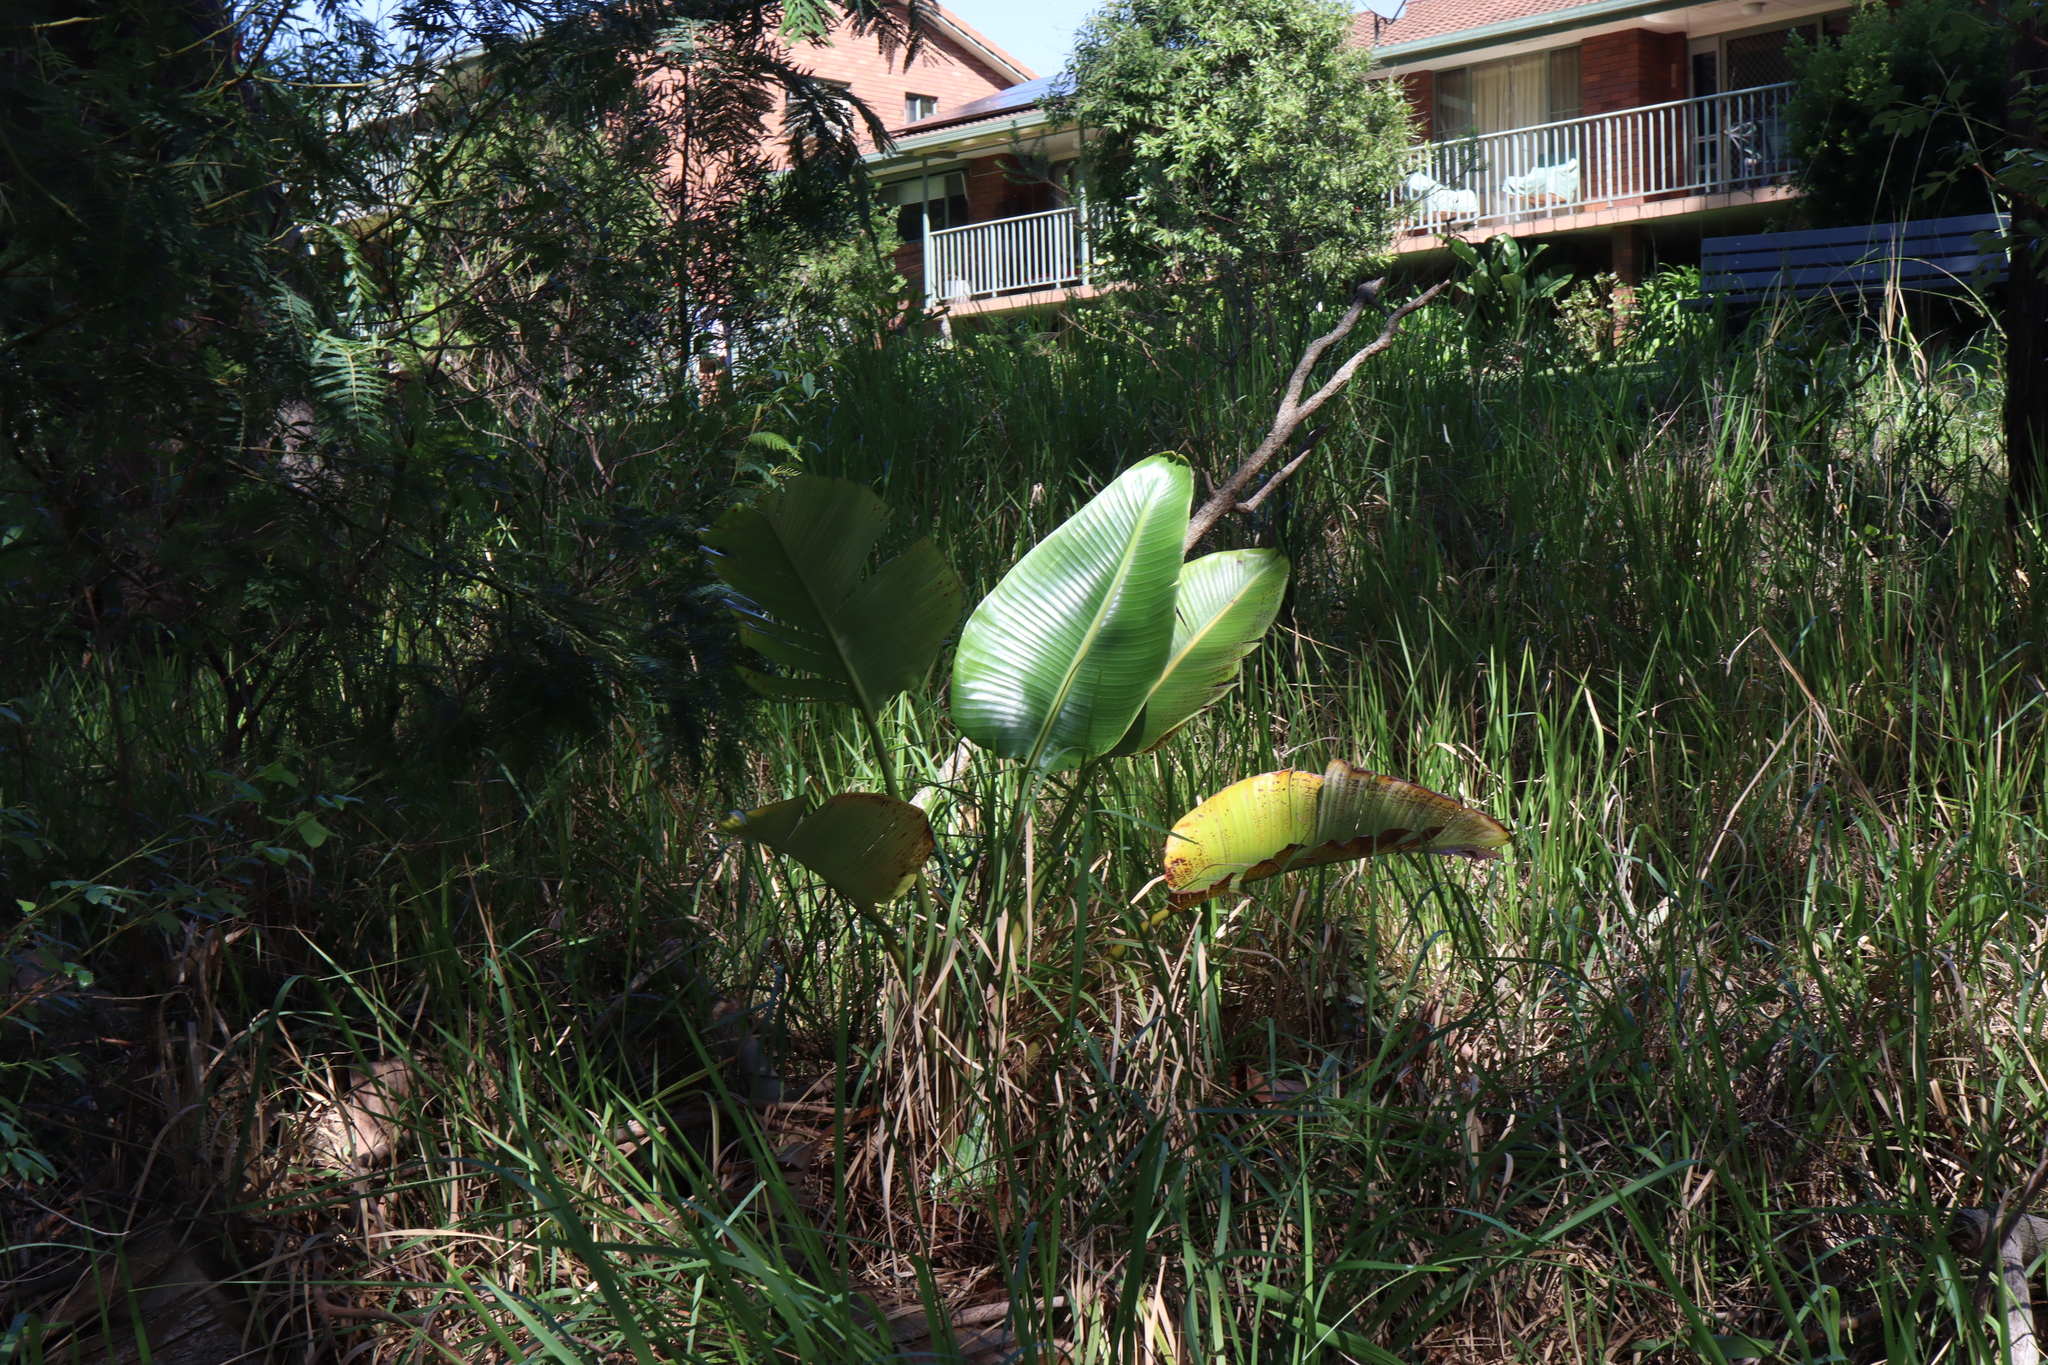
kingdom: Plantae
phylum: Tracheophyta
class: Liliopsida
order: Zingiberales
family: Strelitziaceae
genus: Strelitzia
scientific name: Strelitzia nicolai
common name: Bird-of-paradise tree
